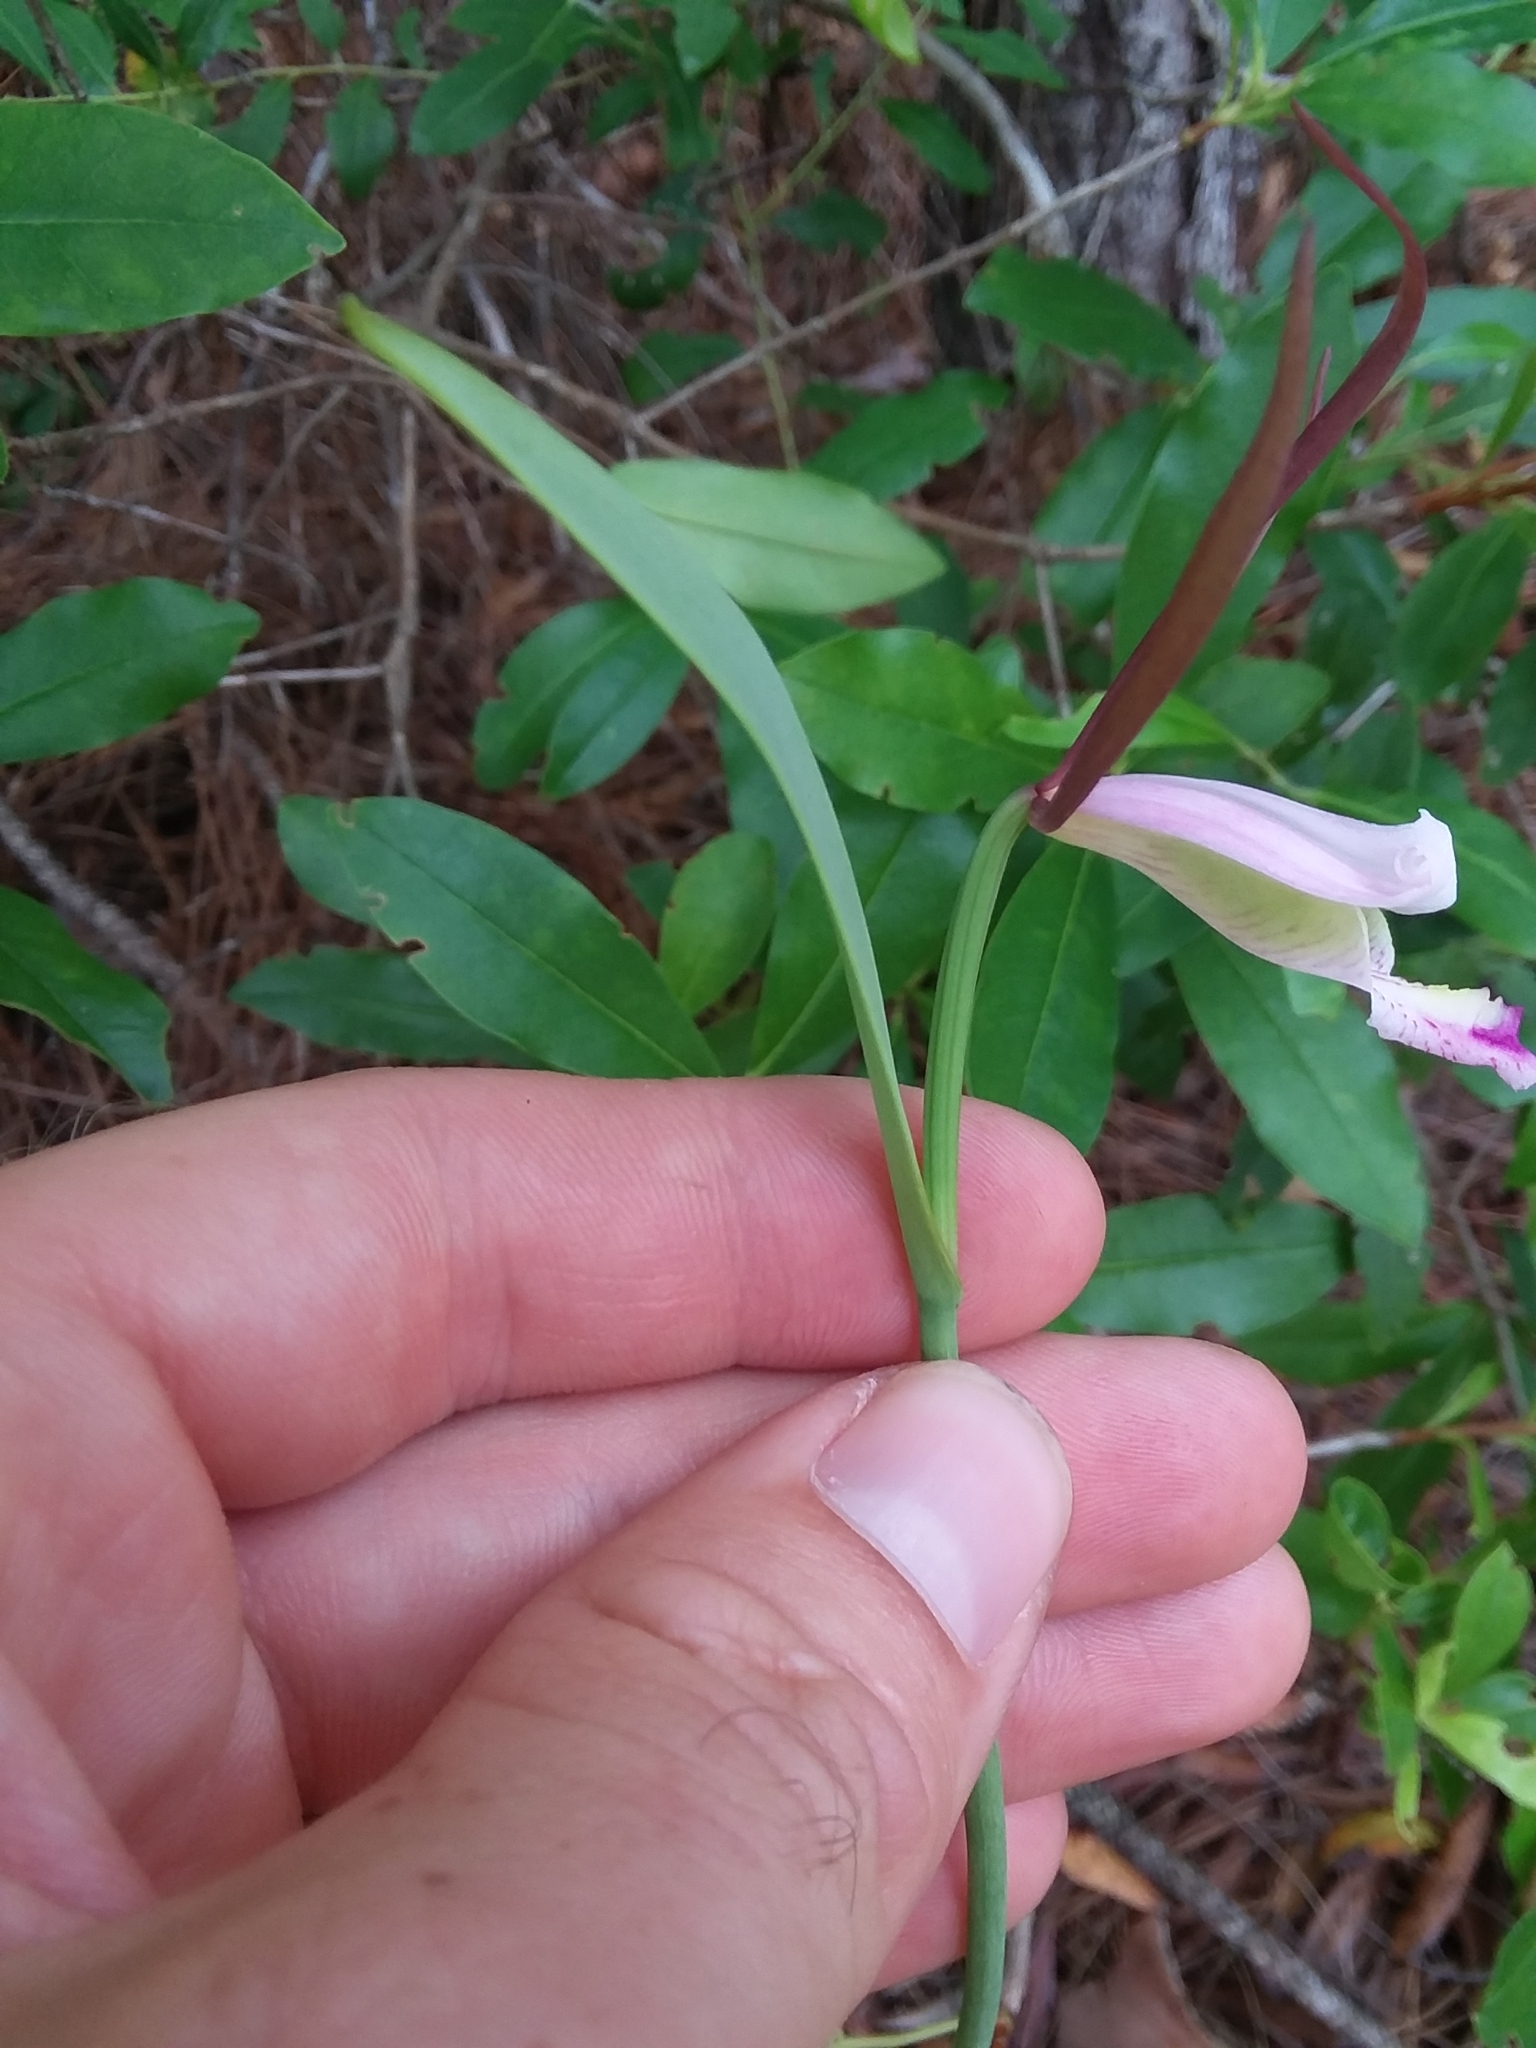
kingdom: Plantae
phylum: Tracheophyta
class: Liliopsida
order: Asparagales
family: Orchidaceae
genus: Cleistesiopsis
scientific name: Cleistesiopsis oricamporum
